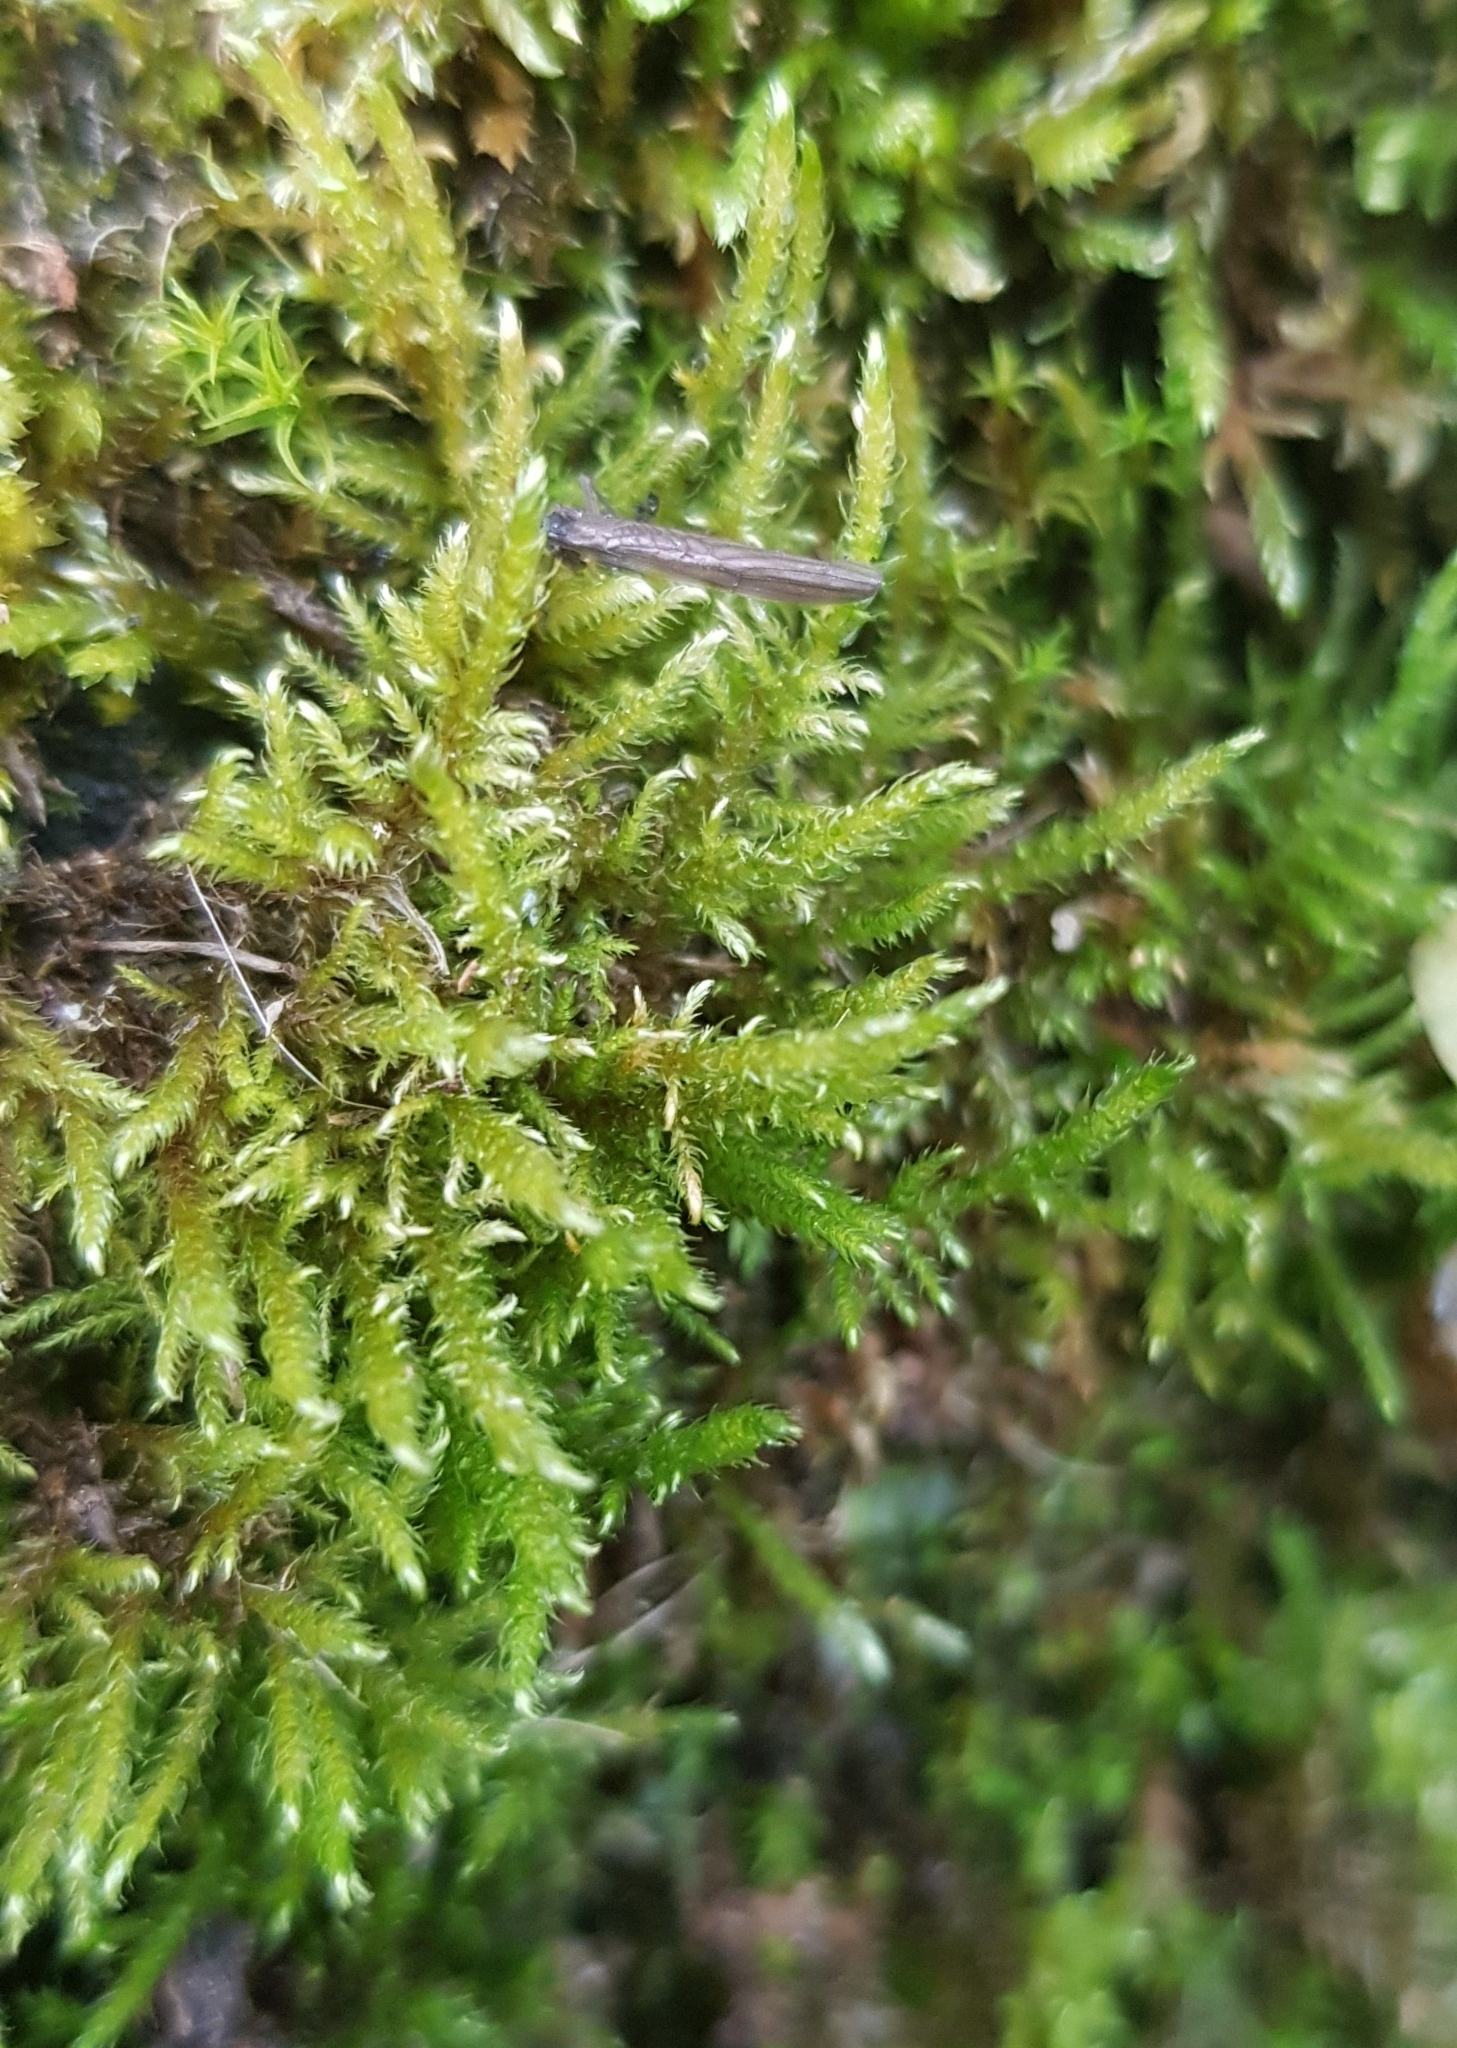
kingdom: Plantae
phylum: Bryophyta
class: Bryopsida
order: Hypnales
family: Amblystegiaceae
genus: Cratoneuron
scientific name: Cratoneuron filicinum
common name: Fern-leaved hook moss
